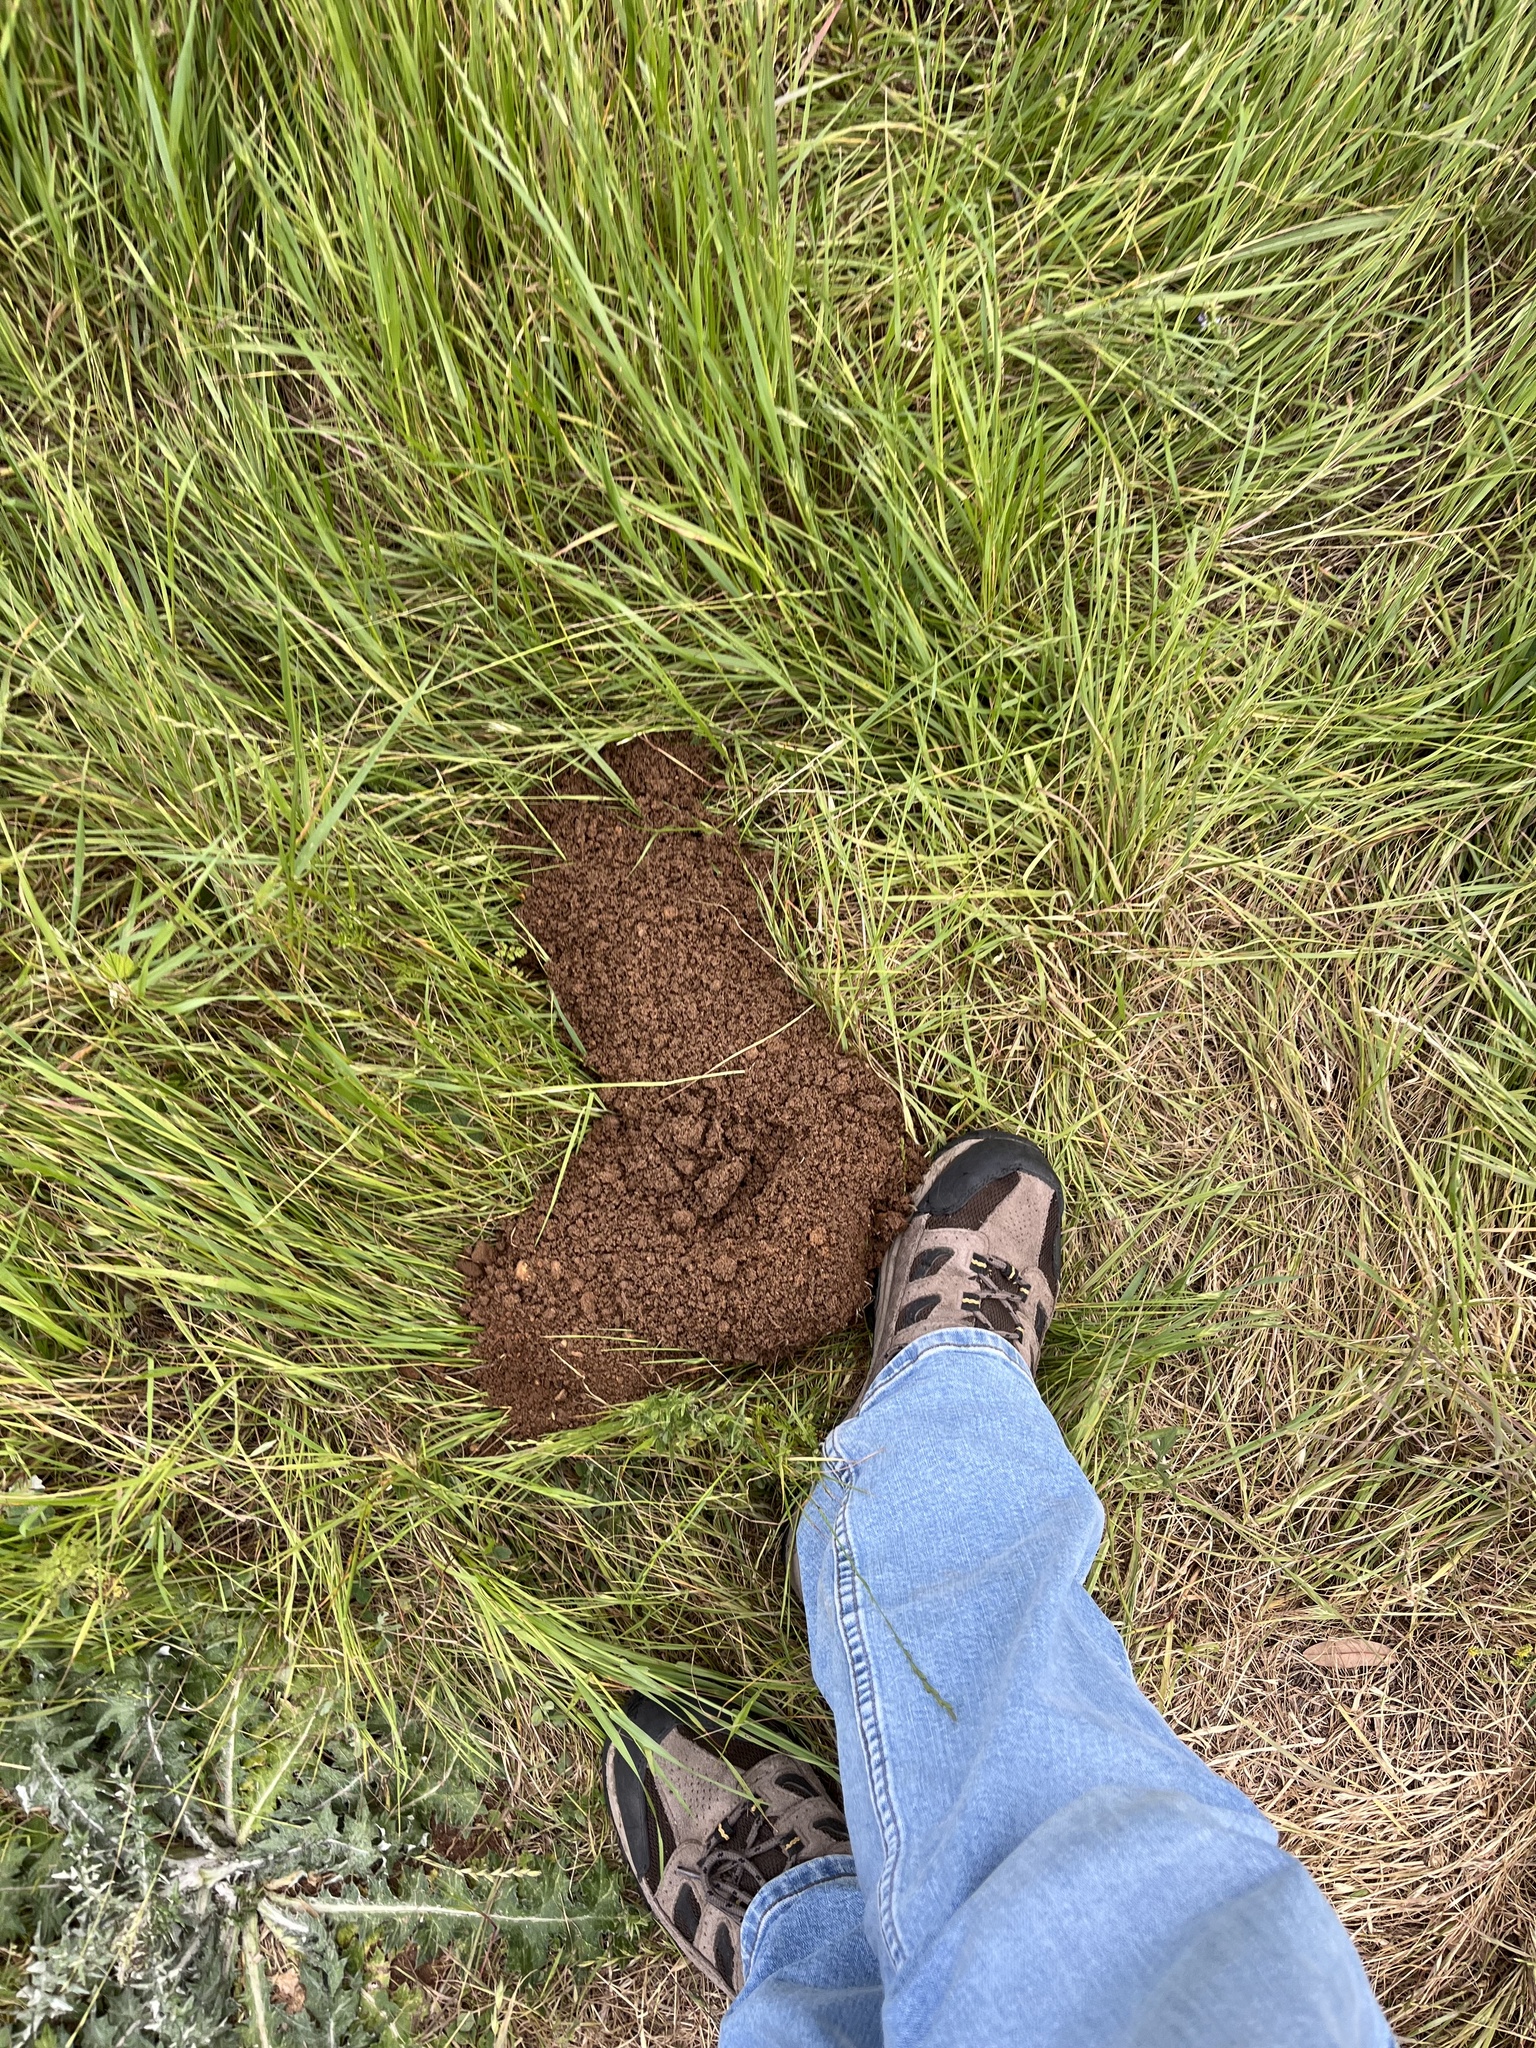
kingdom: Animalia
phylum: Chordata
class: Mammalia
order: Rodentia
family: Geomyidae
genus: Geomys
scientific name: Geomys attwateri
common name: Attwater's pocket gopher
